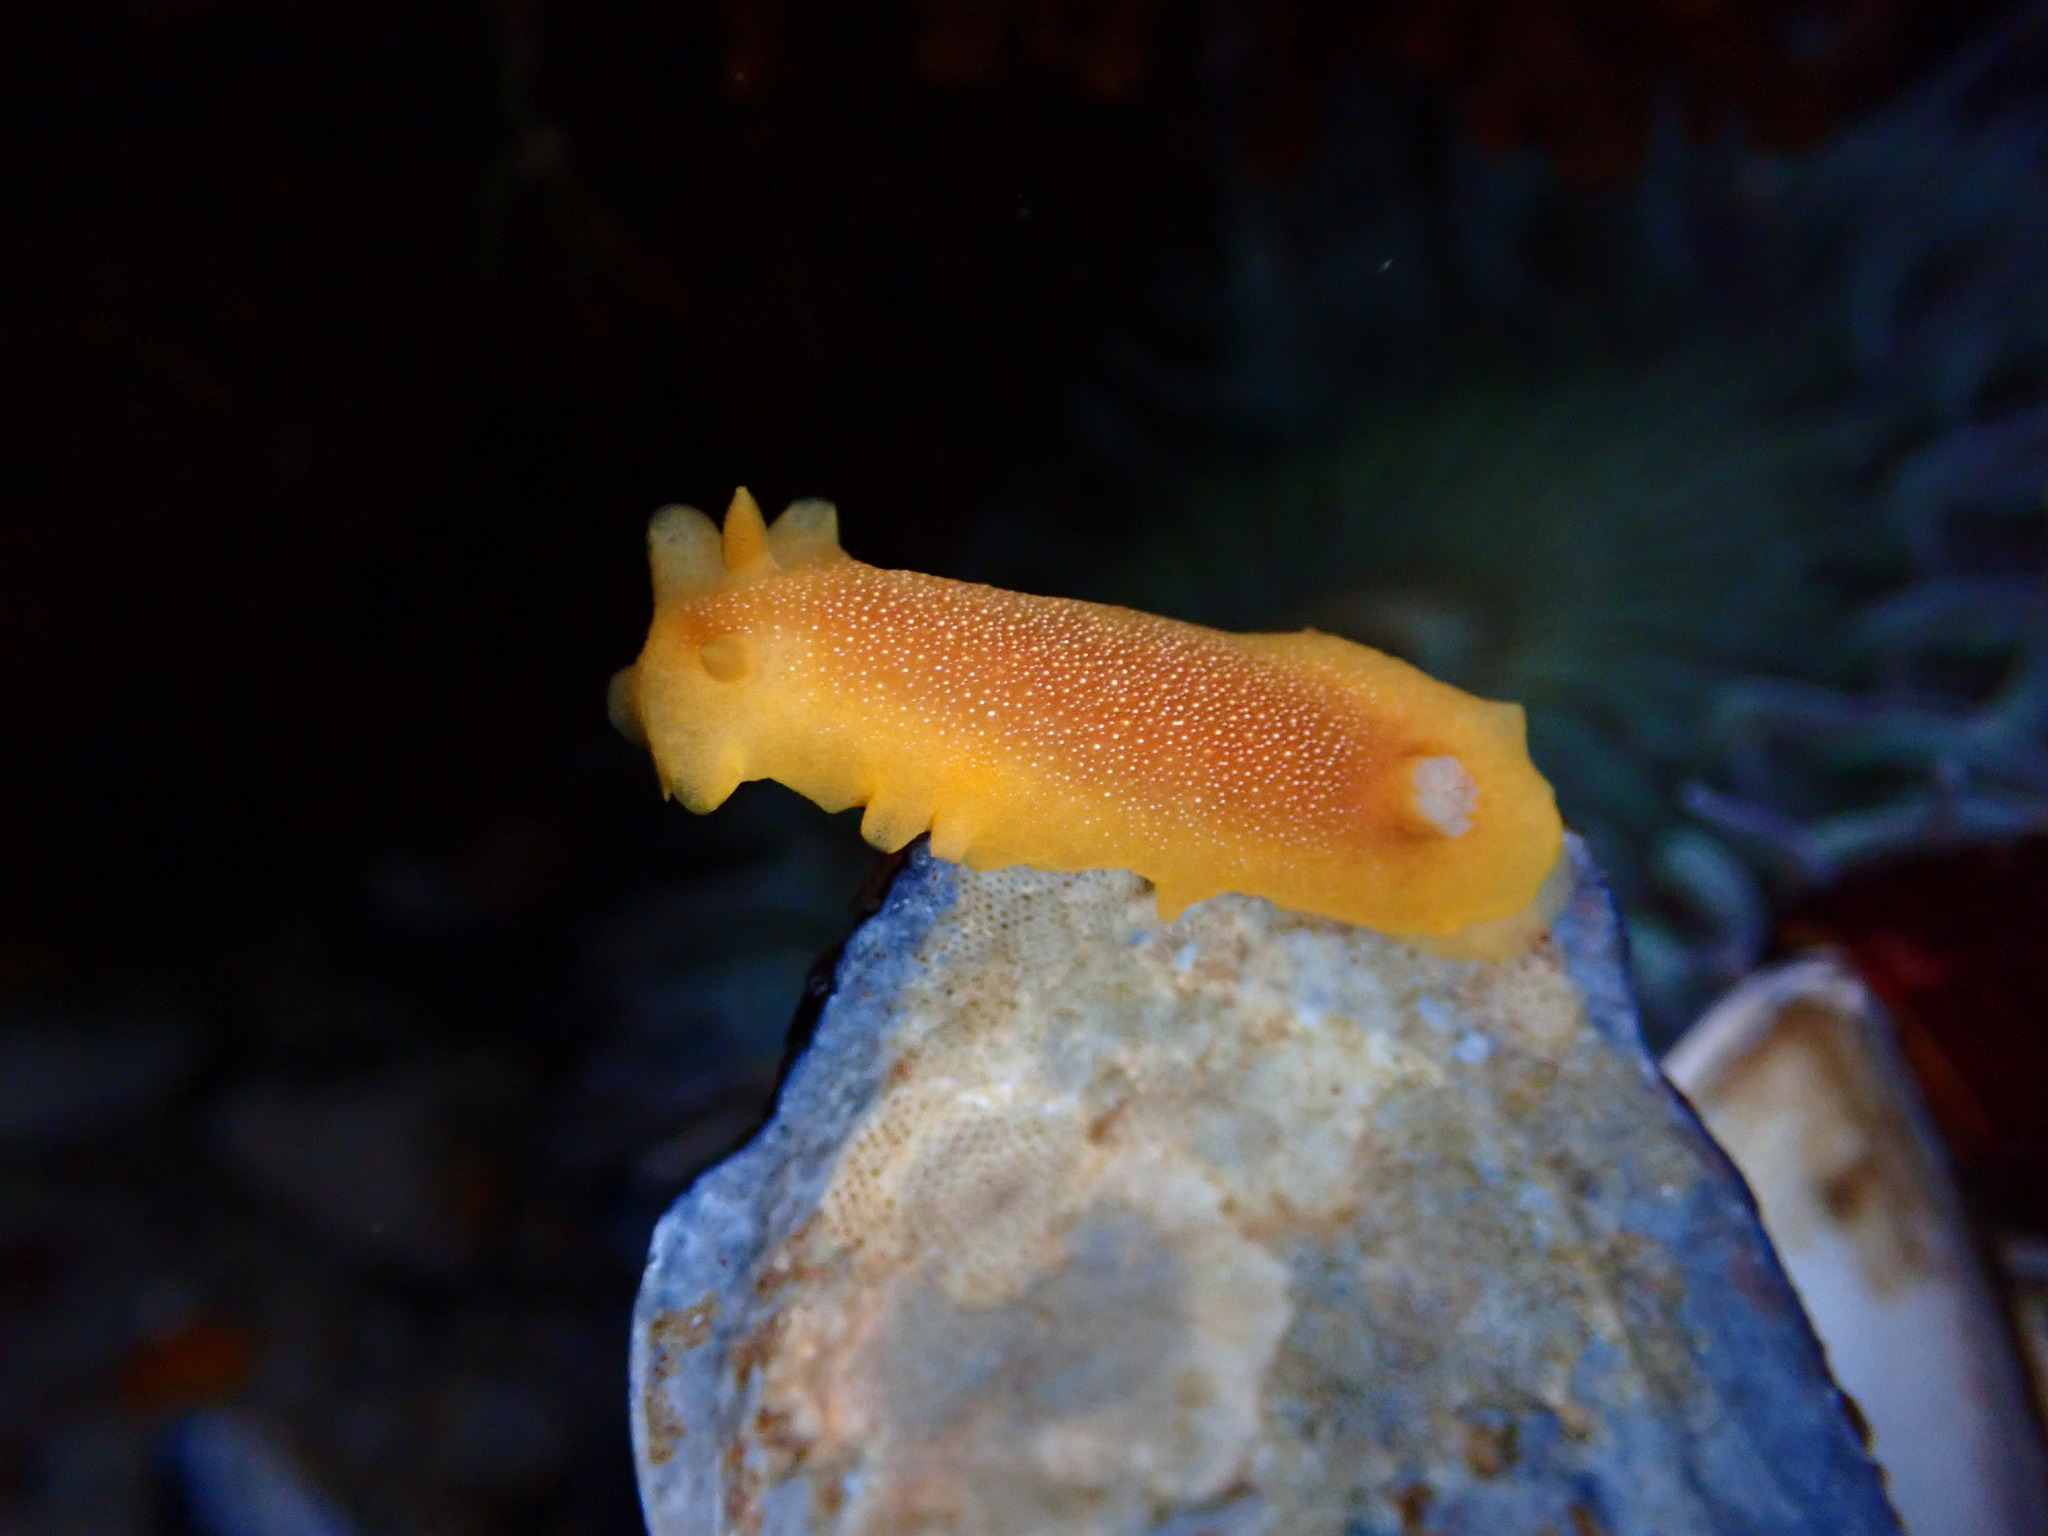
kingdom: Animalia
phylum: Mollusca
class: Gastropoda
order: Nudibranchia
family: Dendrodorididae
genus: Doriopsilla
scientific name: Doriopsilla albopunctata
